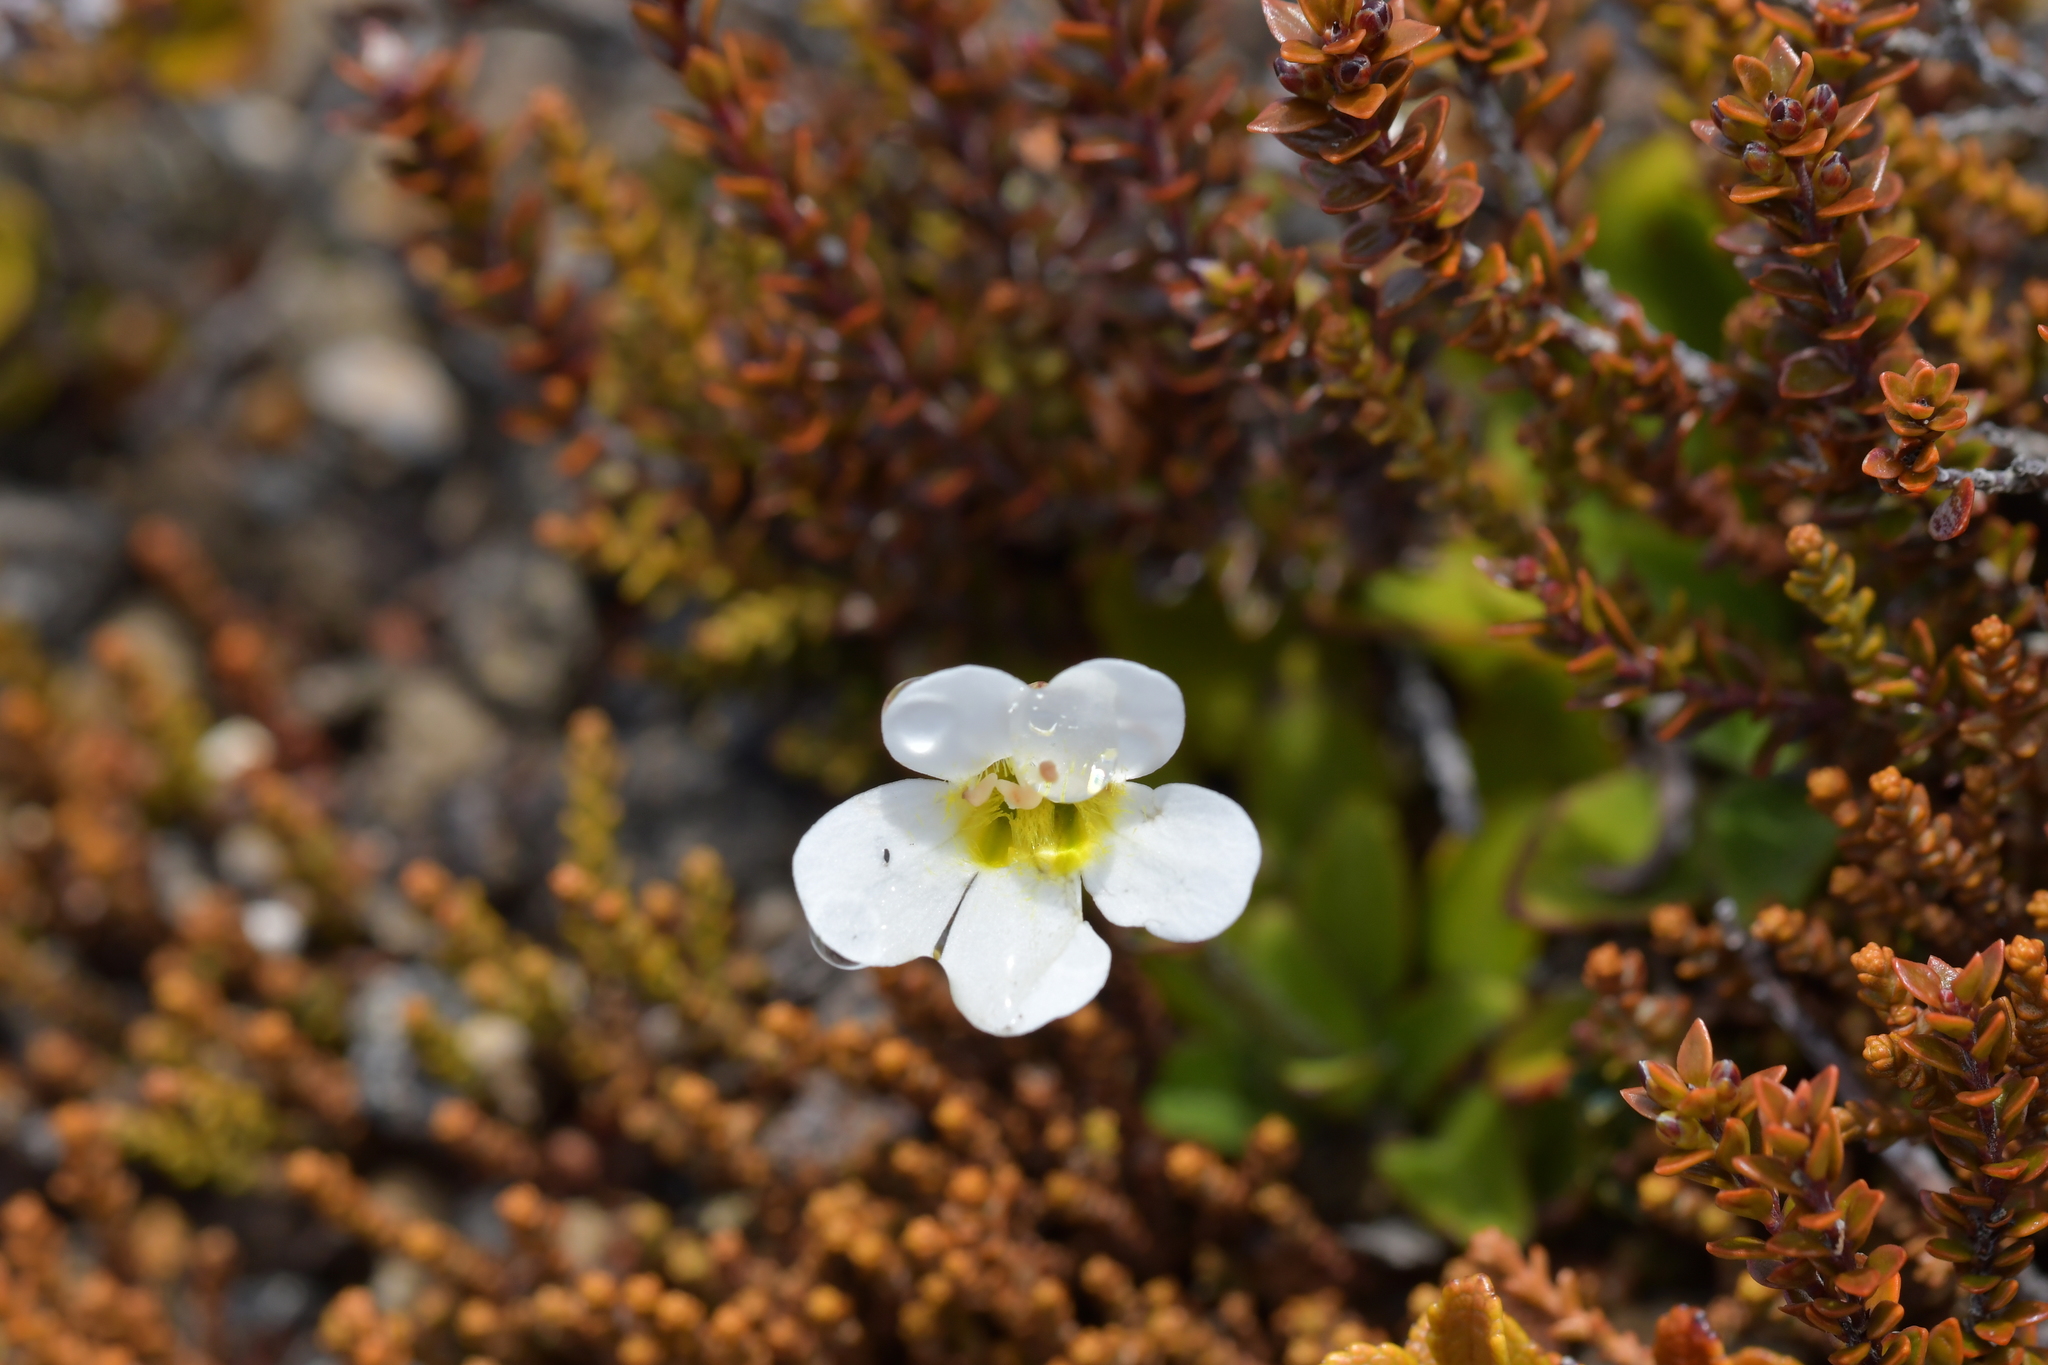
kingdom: Plantae
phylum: Tracheophyta
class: Magnoliopsida
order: Lamiales
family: Plantaginaceae
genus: Ourisia
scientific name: Ourisia vulcanica
